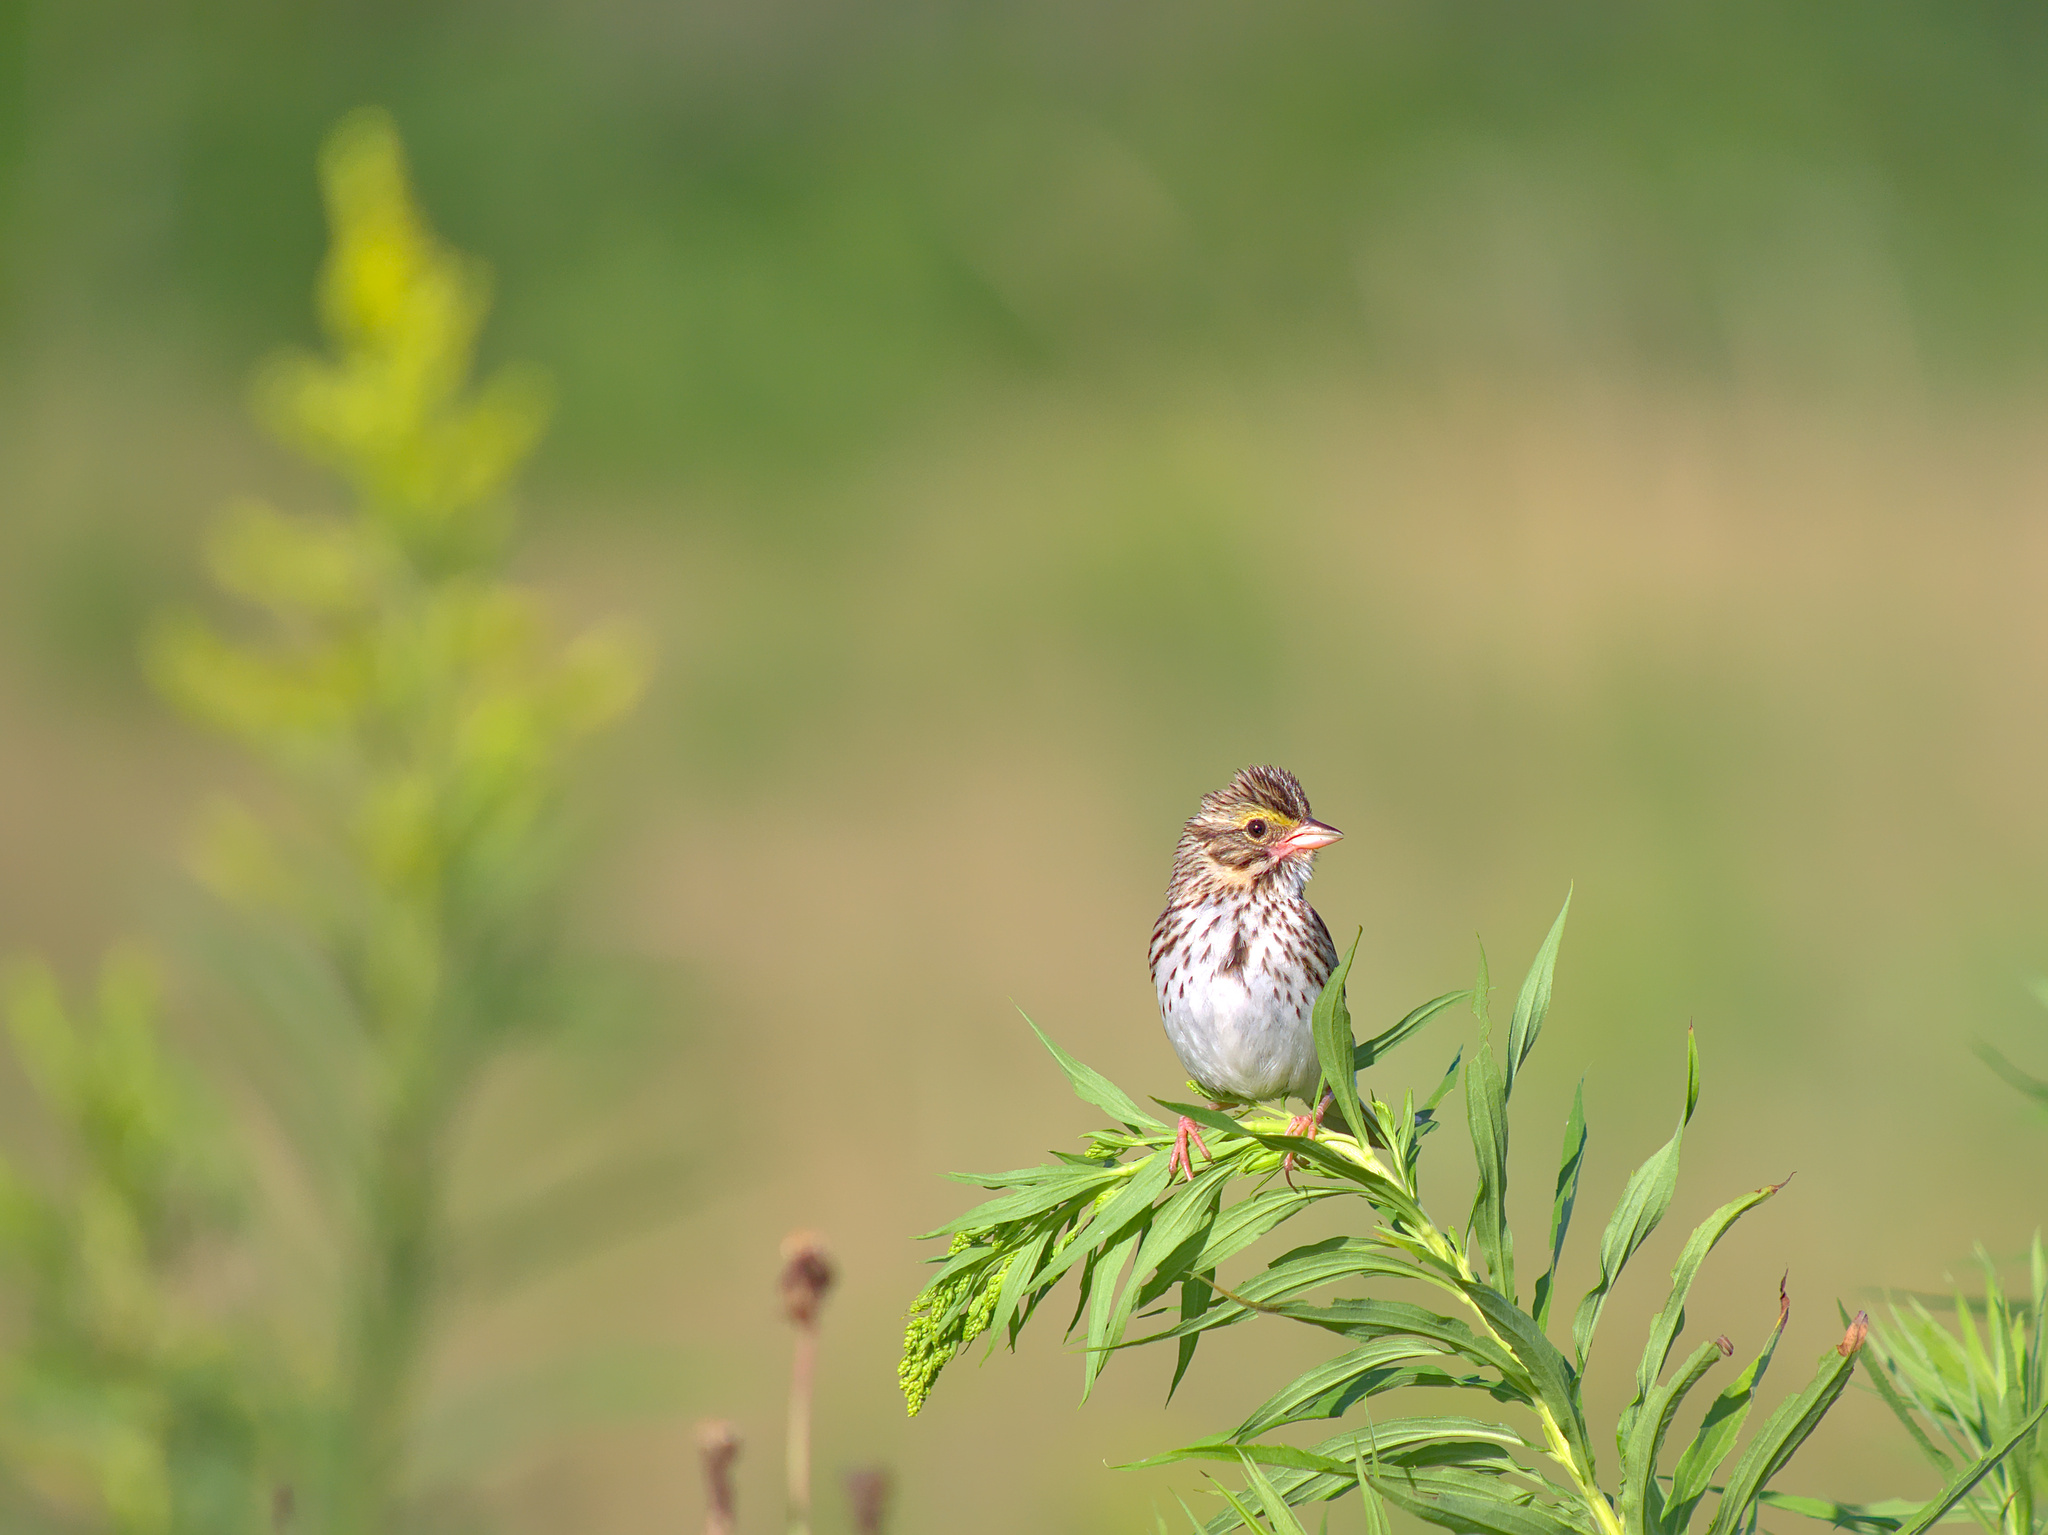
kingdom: Animalia
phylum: Chordata
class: Aves
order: Passeriformes
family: Passerellidae
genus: Passerculus
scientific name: Passerculus sandwichensis
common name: Savannah sparrow
